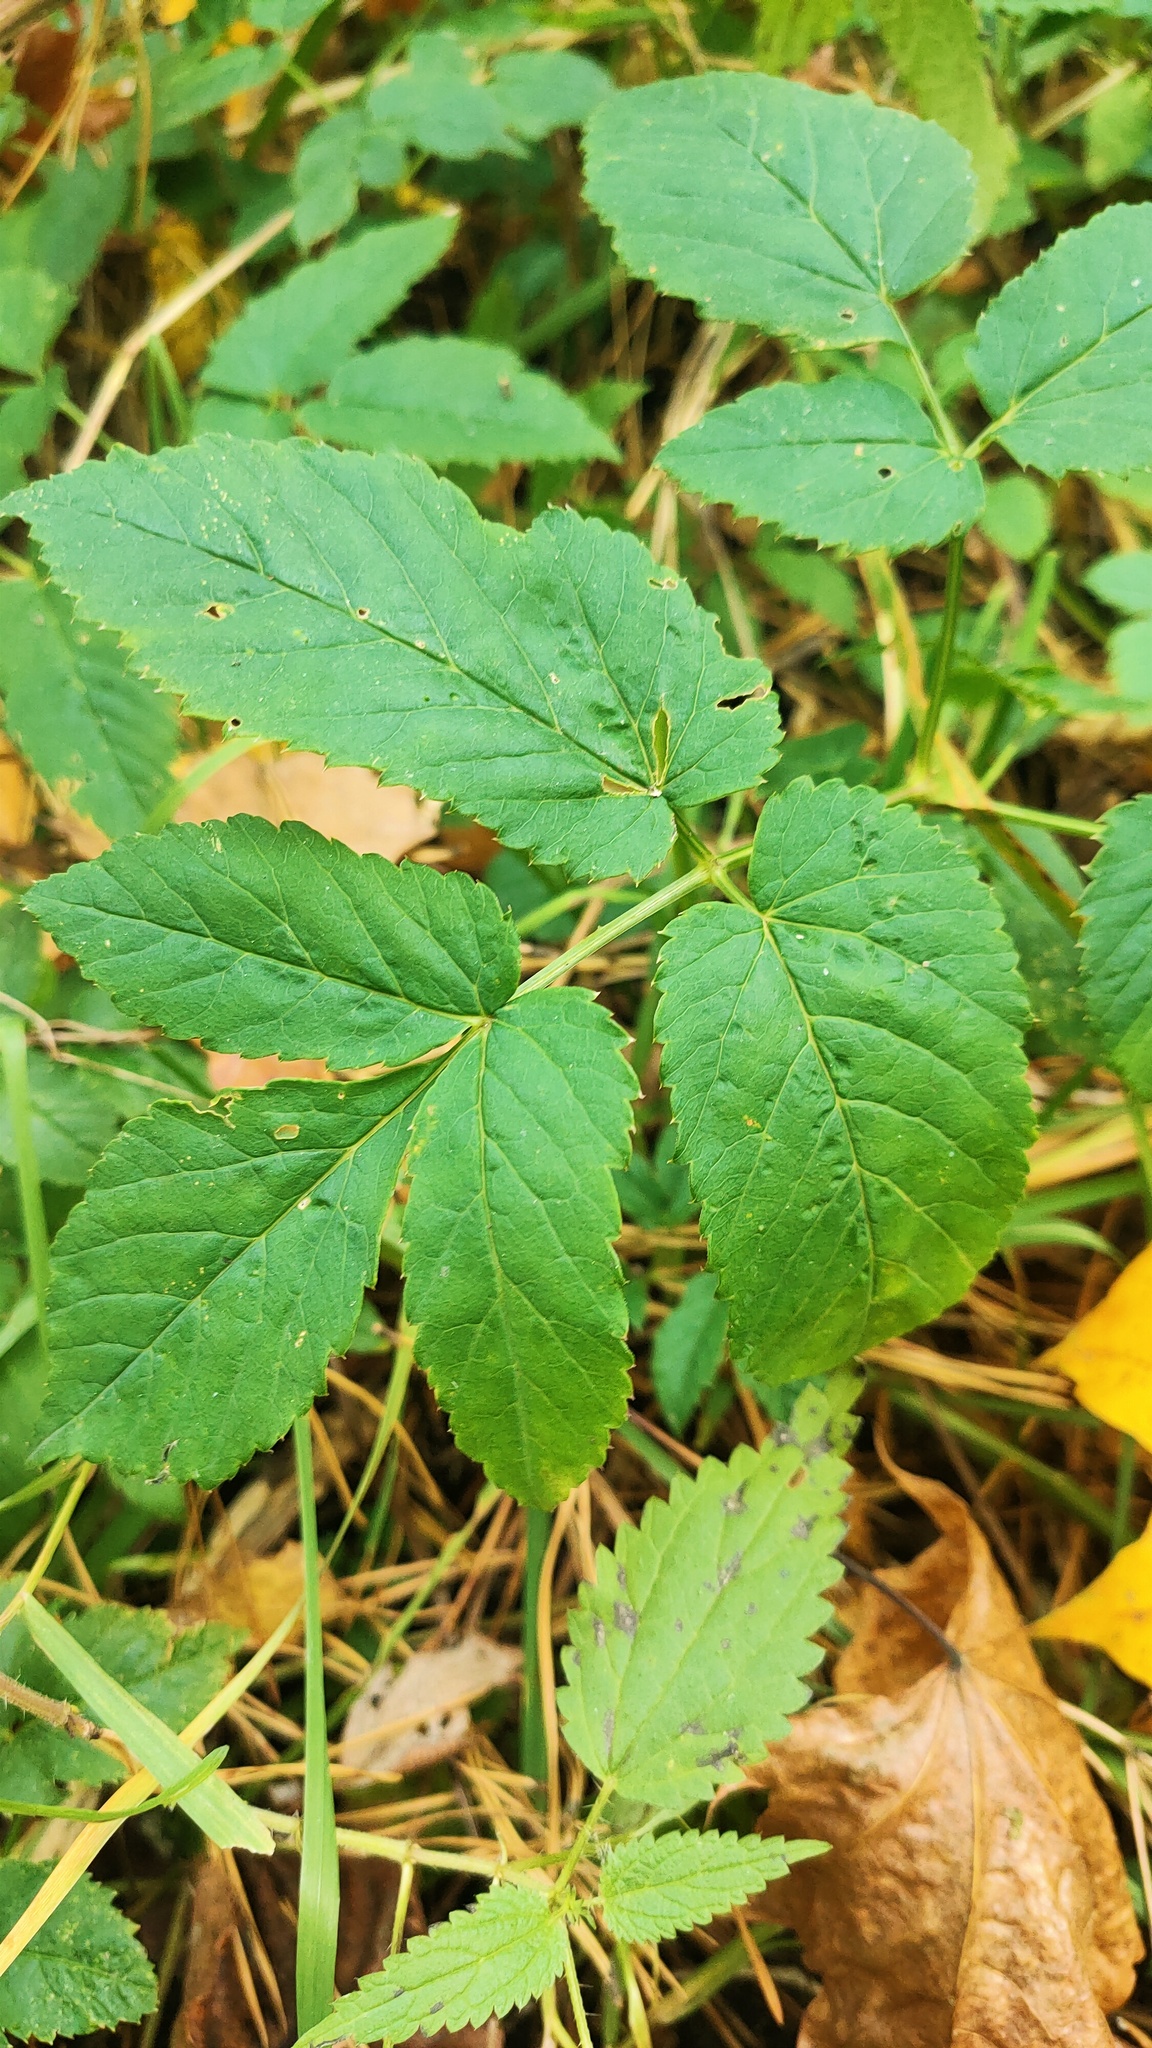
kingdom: Plantae
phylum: Tracheophyta
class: Magnoliopsida
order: Apiales
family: Apiaceae
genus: Aegopodium
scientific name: Aegopodium podagraria
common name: Ground-elder
